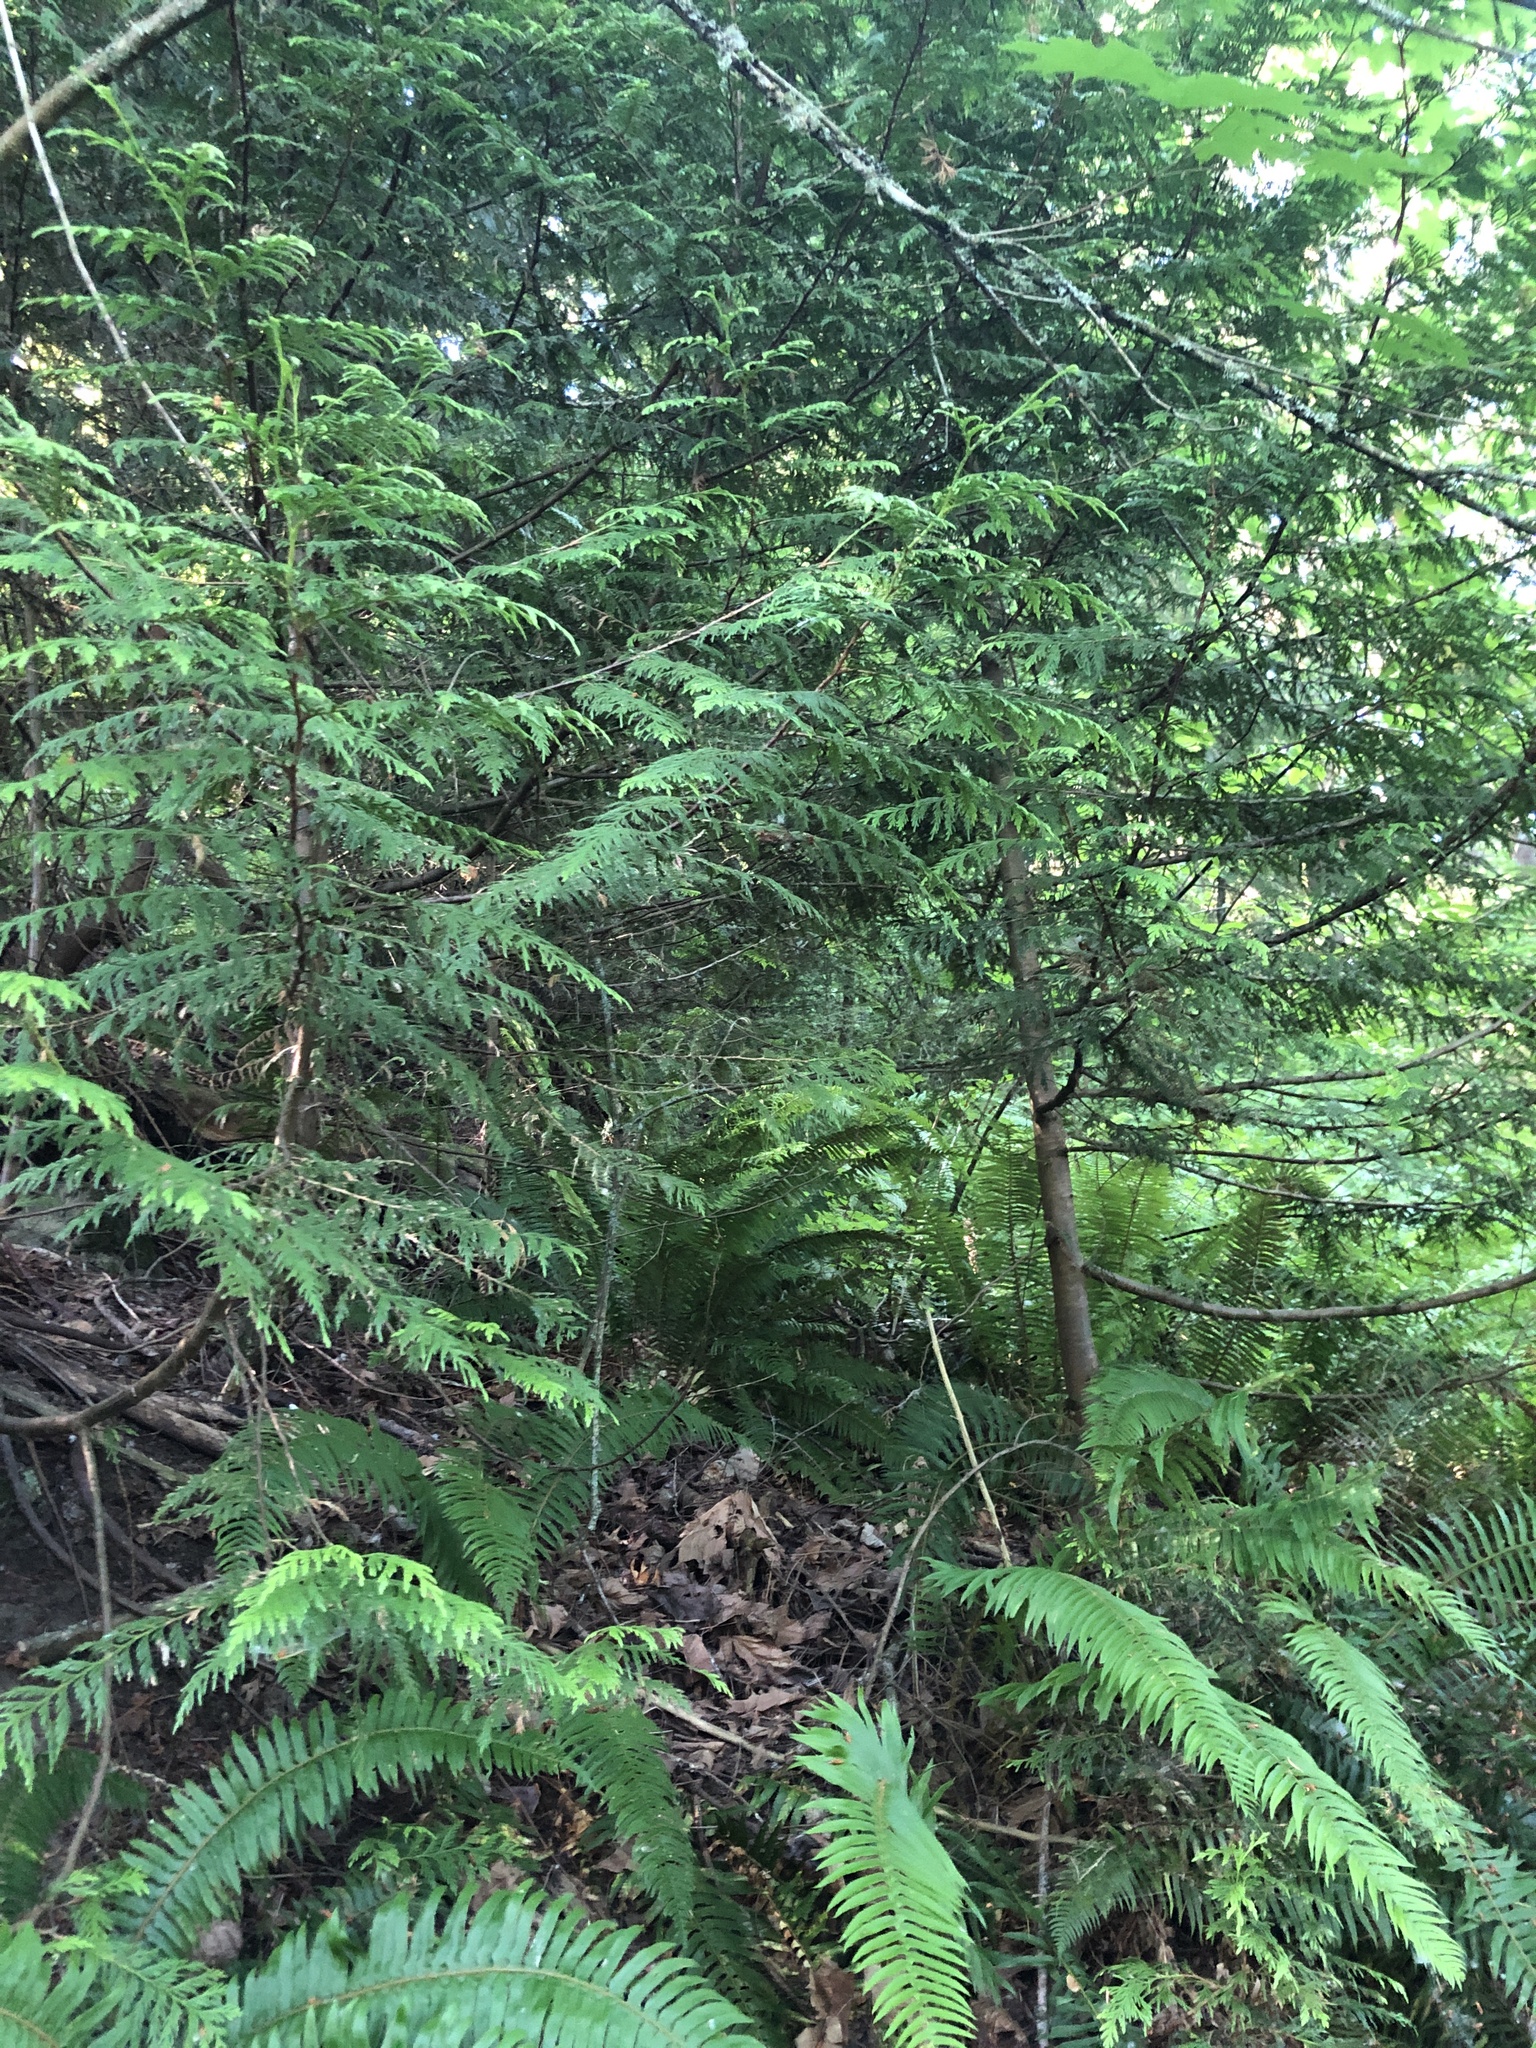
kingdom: Plantae
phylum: Tracheophyta
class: Pinopsida
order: Pinales
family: Cupressaceae
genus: Thuja
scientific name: Thuja plicata
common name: Western red-cedar
